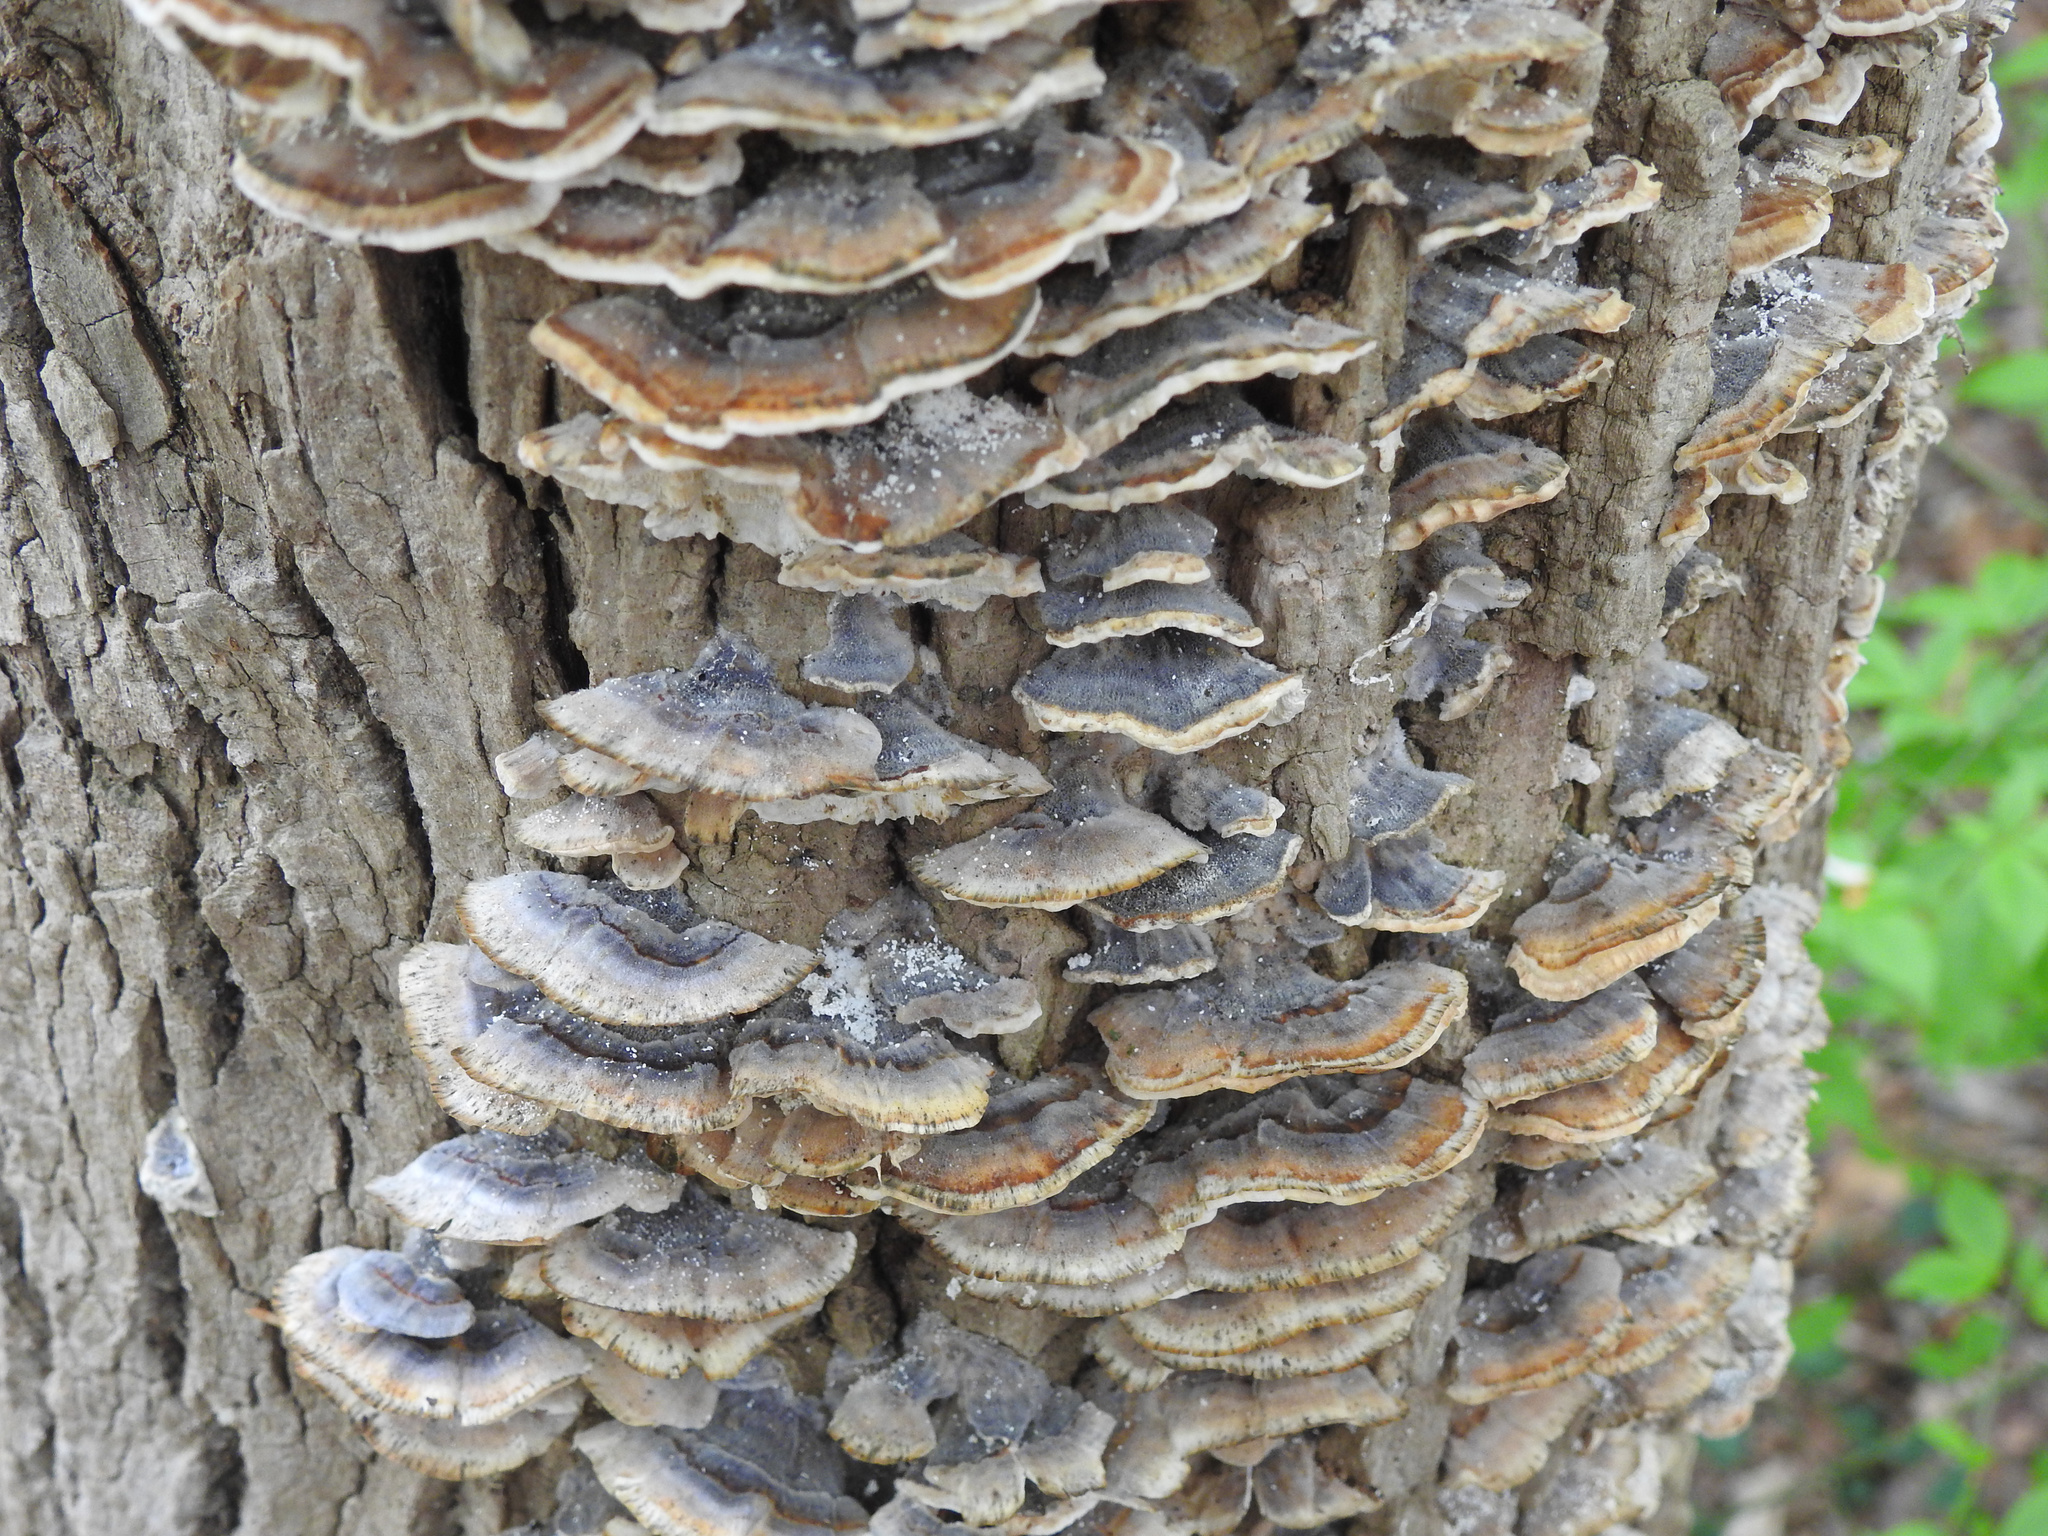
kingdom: Fungi
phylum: Basidiomycota
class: Agaricomycetes
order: Polyporales
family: Polyporaceae
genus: Trametes
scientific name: Trametes versicolor
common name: Turkeytail
